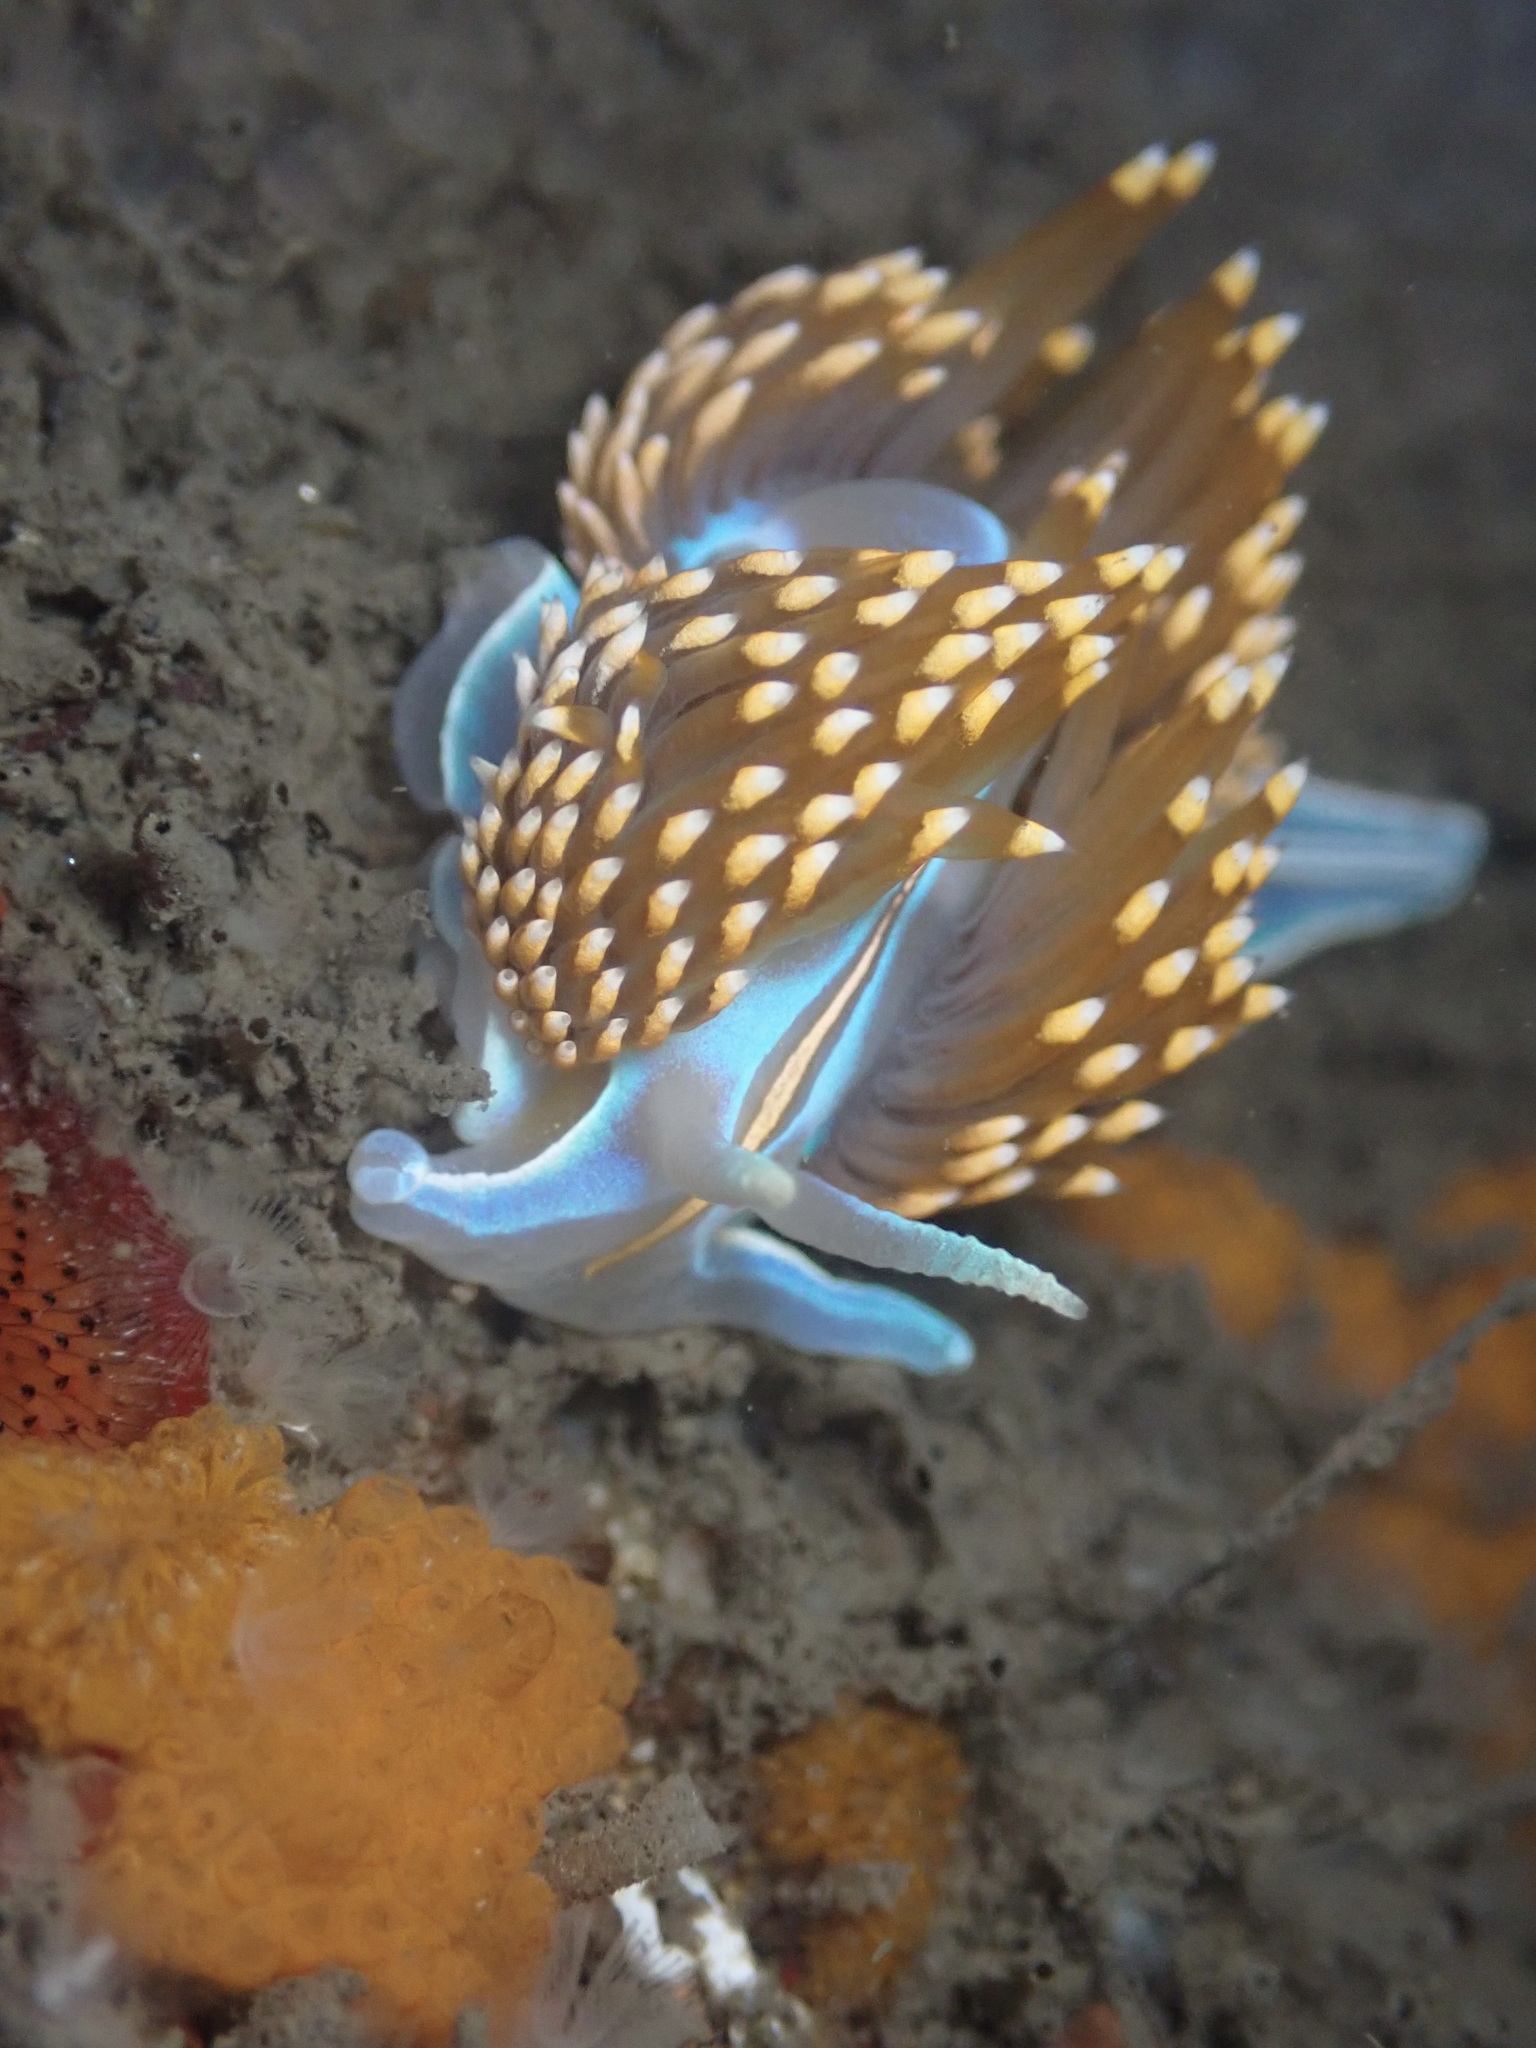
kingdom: Animalia
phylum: Mollusca
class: Gastropoda
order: Nudibranchia
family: Myrrhinidae
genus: Hermissenda
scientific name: Hermissenda opalescens
